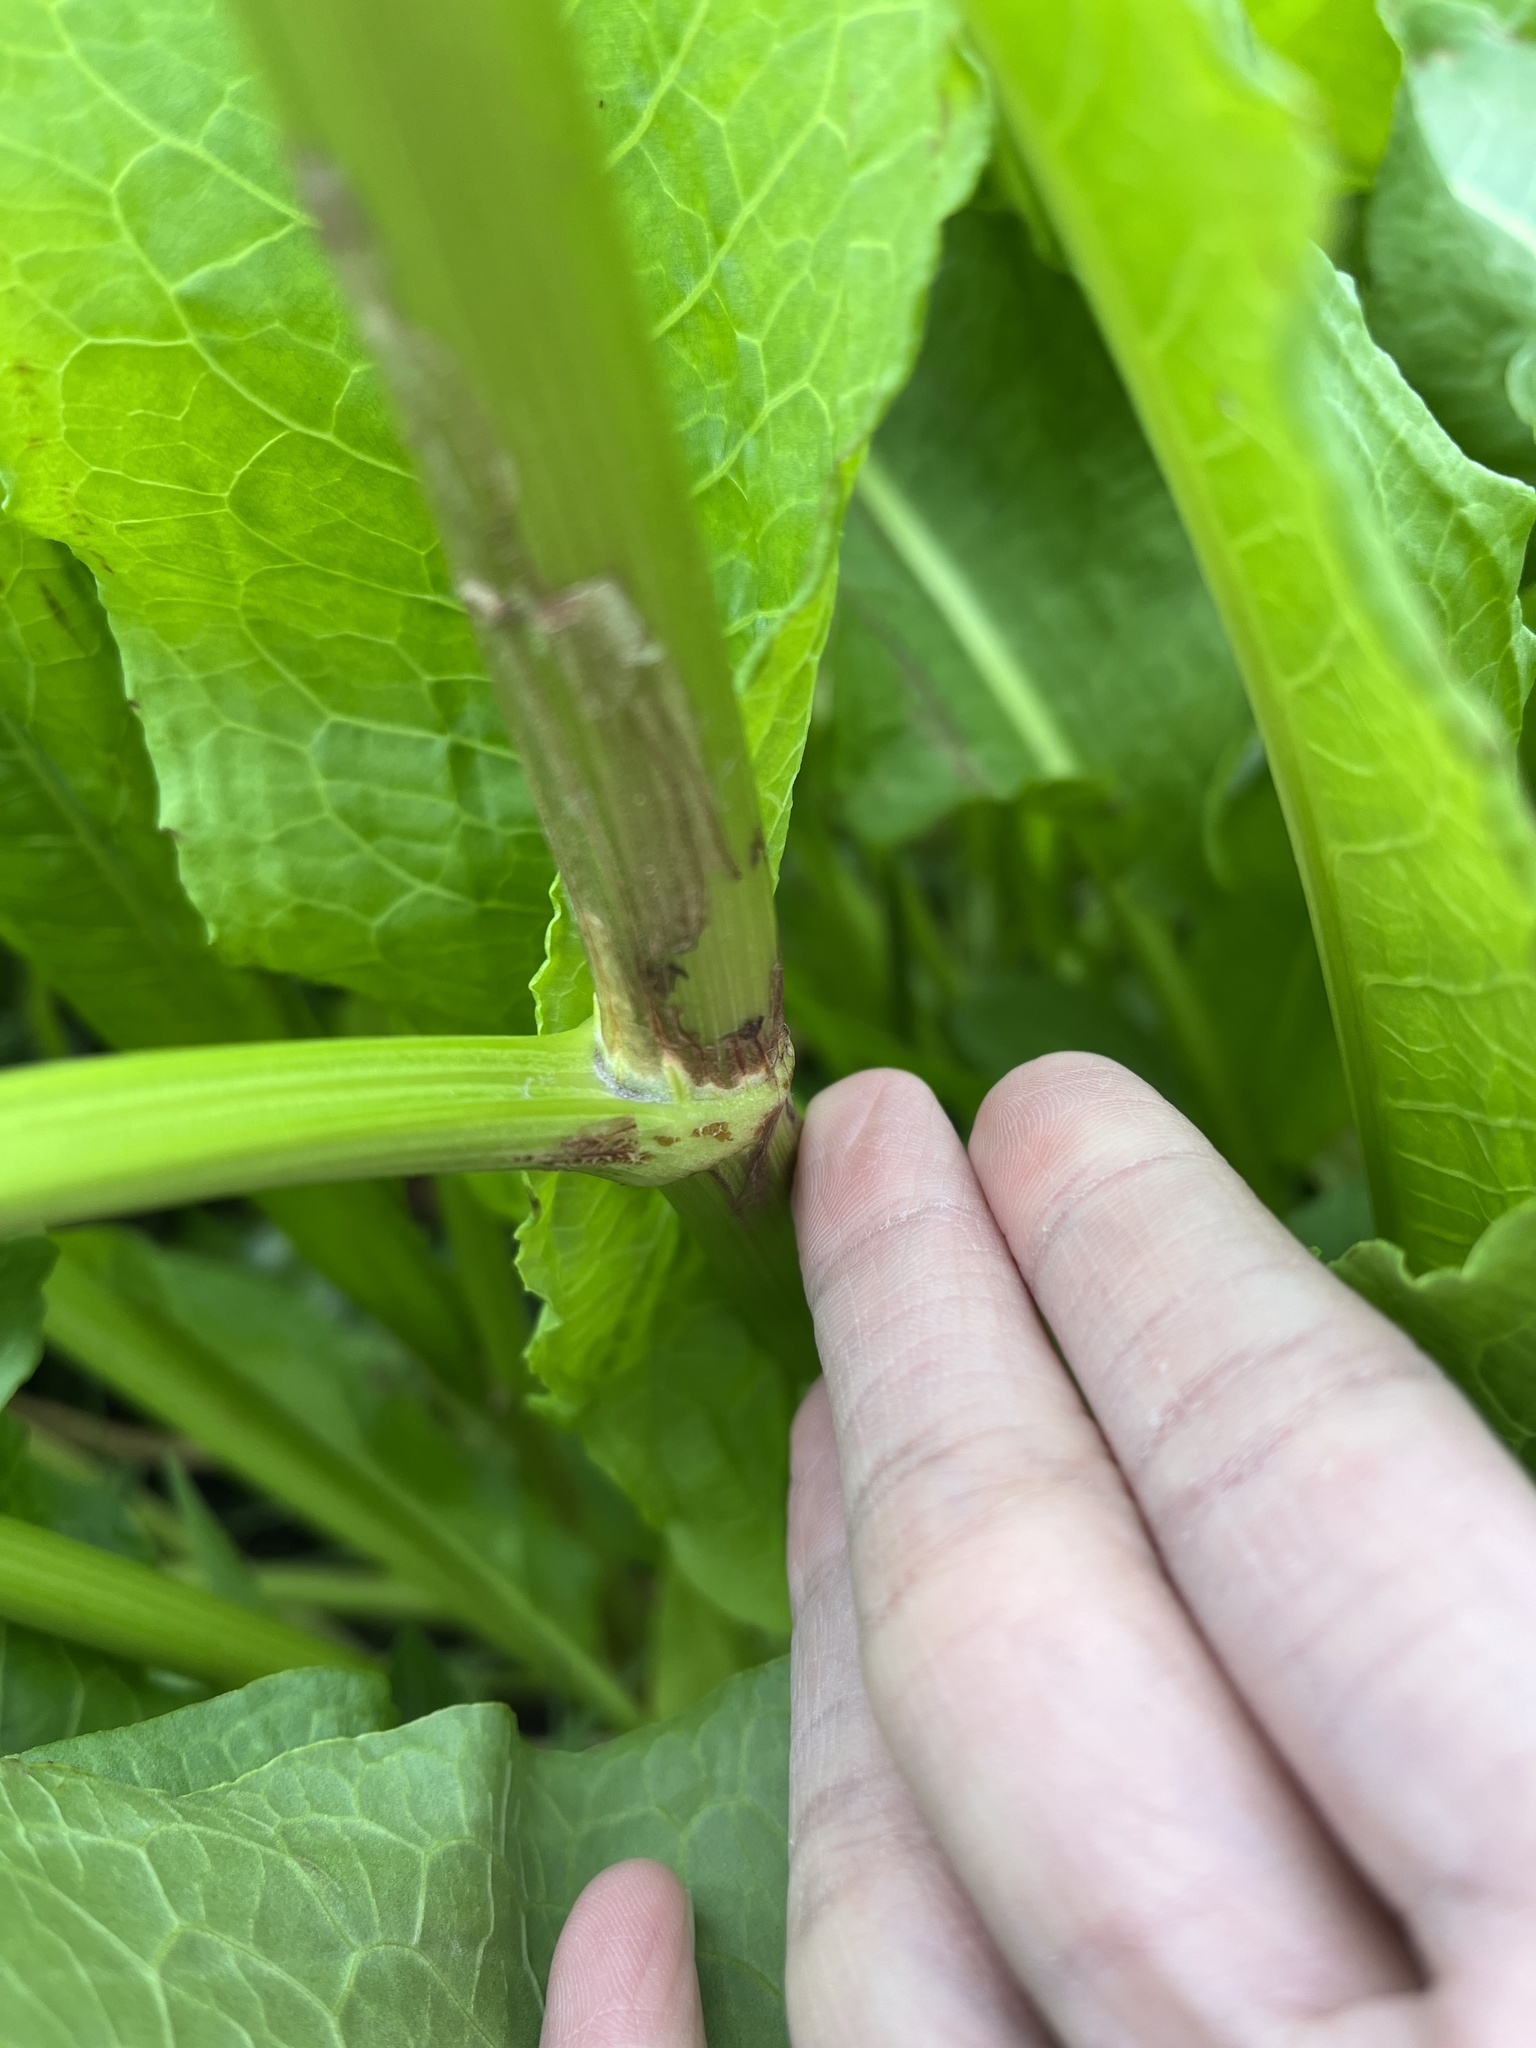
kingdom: Plantae
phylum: Tracheophyta
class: Magnoliopsida
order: Caryophyllales
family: Polygonaceae
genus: Rumex
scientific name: Rumex japonicus
